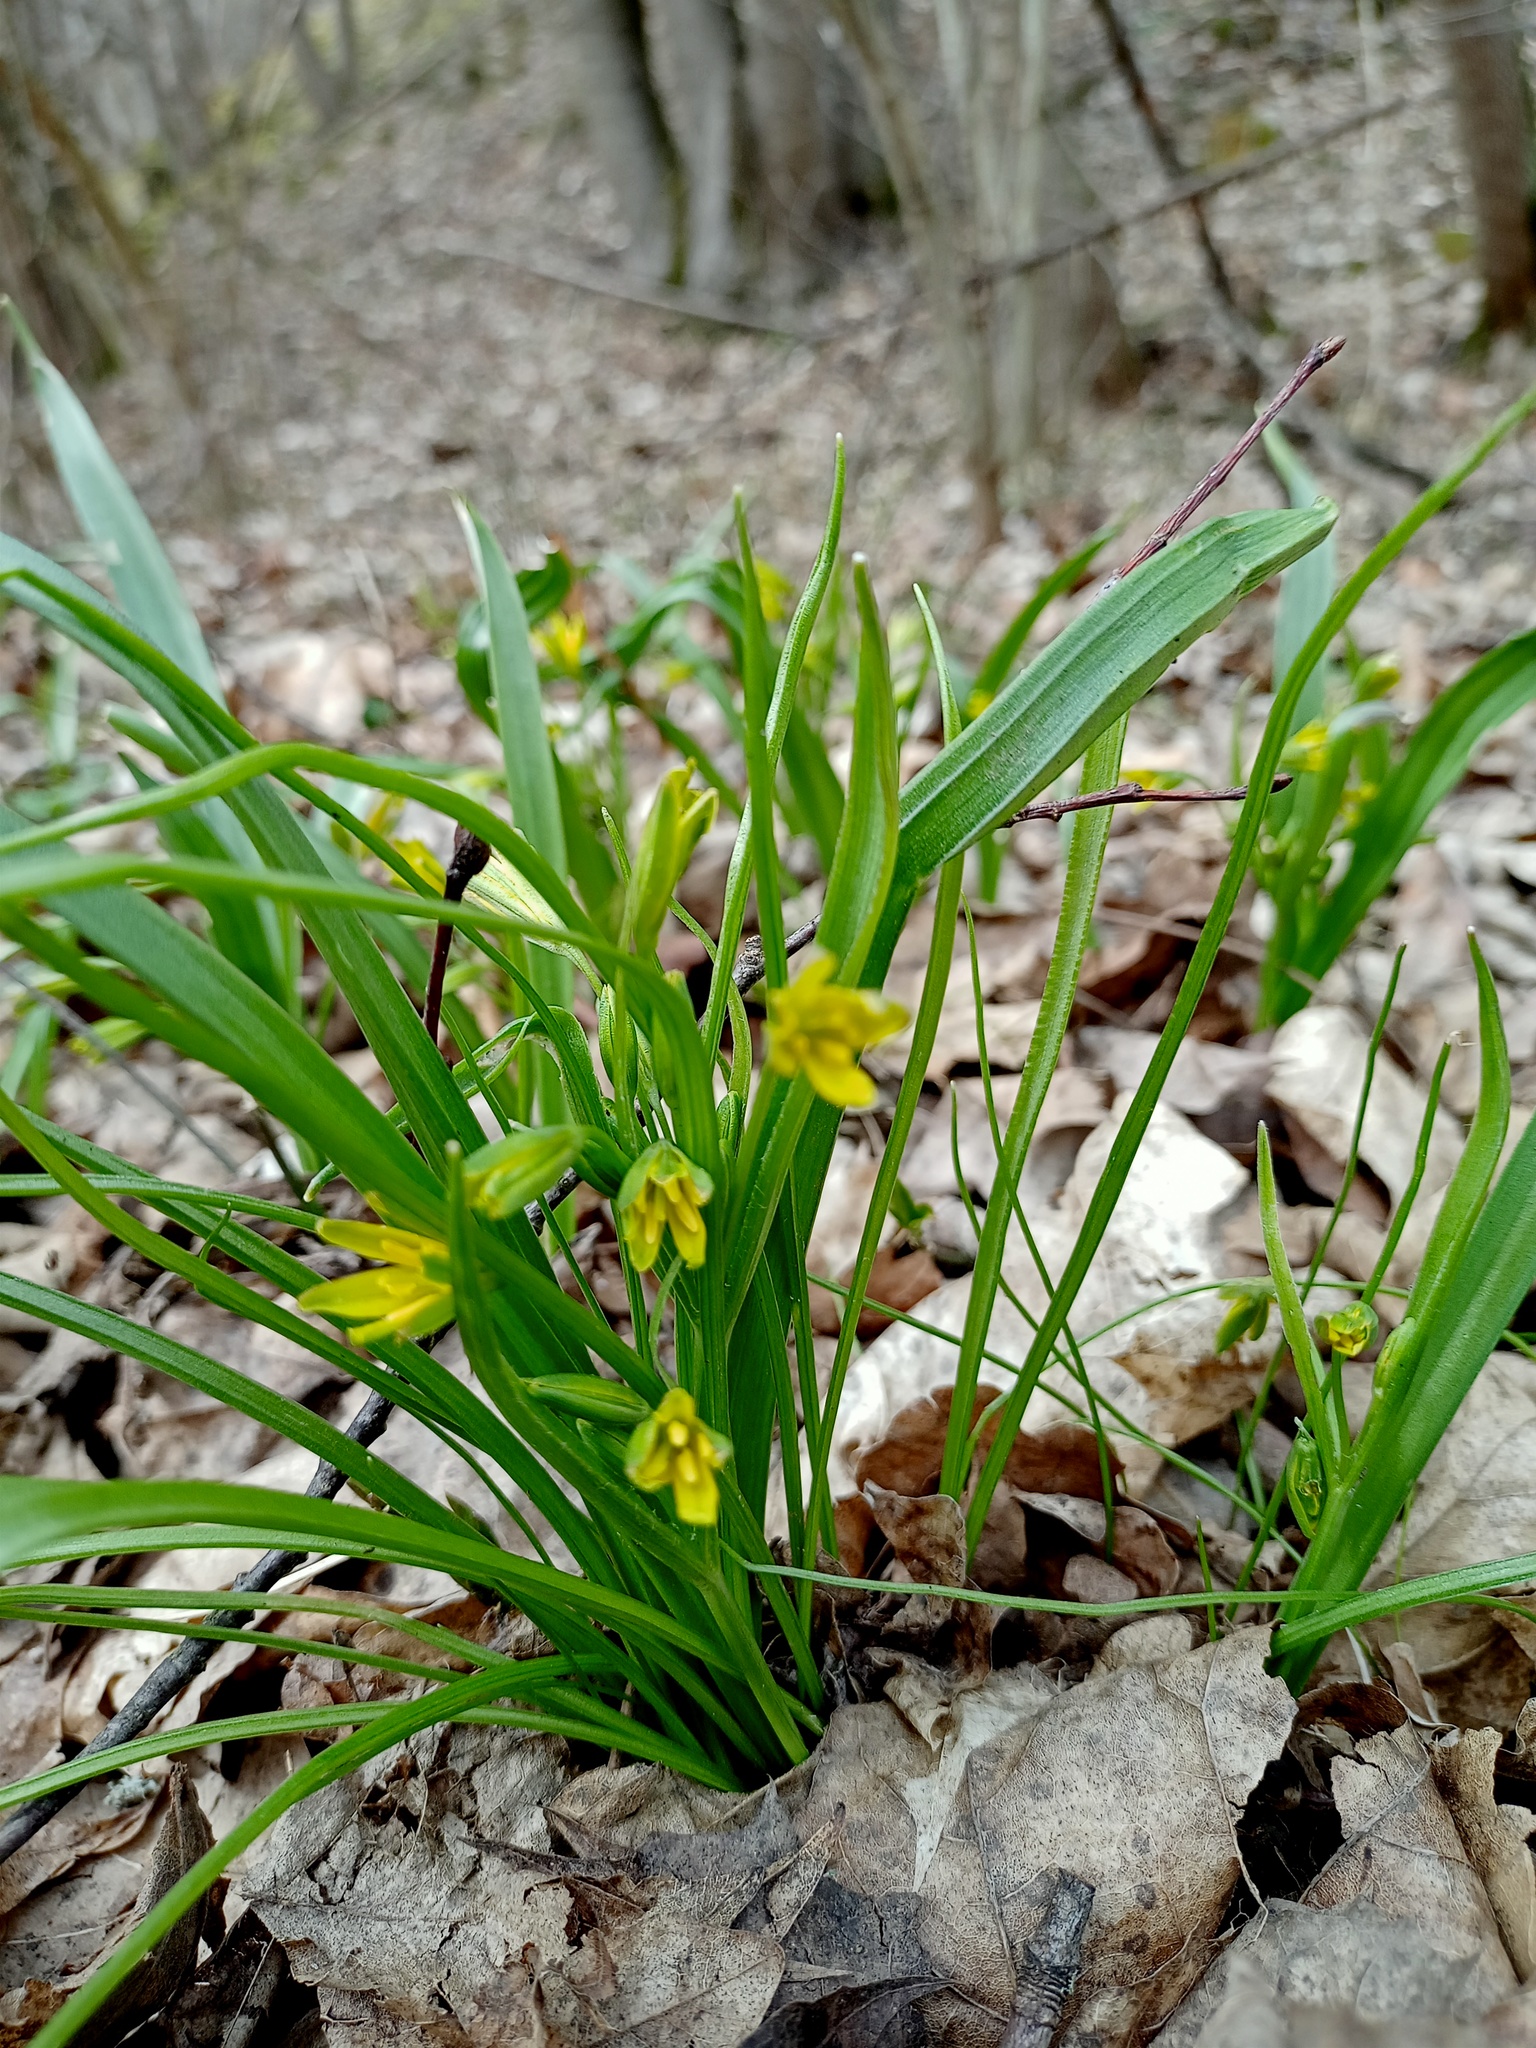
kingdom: Plantae
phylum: Tracheophyta
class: Liliopsida
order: Liliales
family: Liliaceae
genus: Gagea
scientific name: Gagea lutea
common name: Yellow star-of-bethlehem
